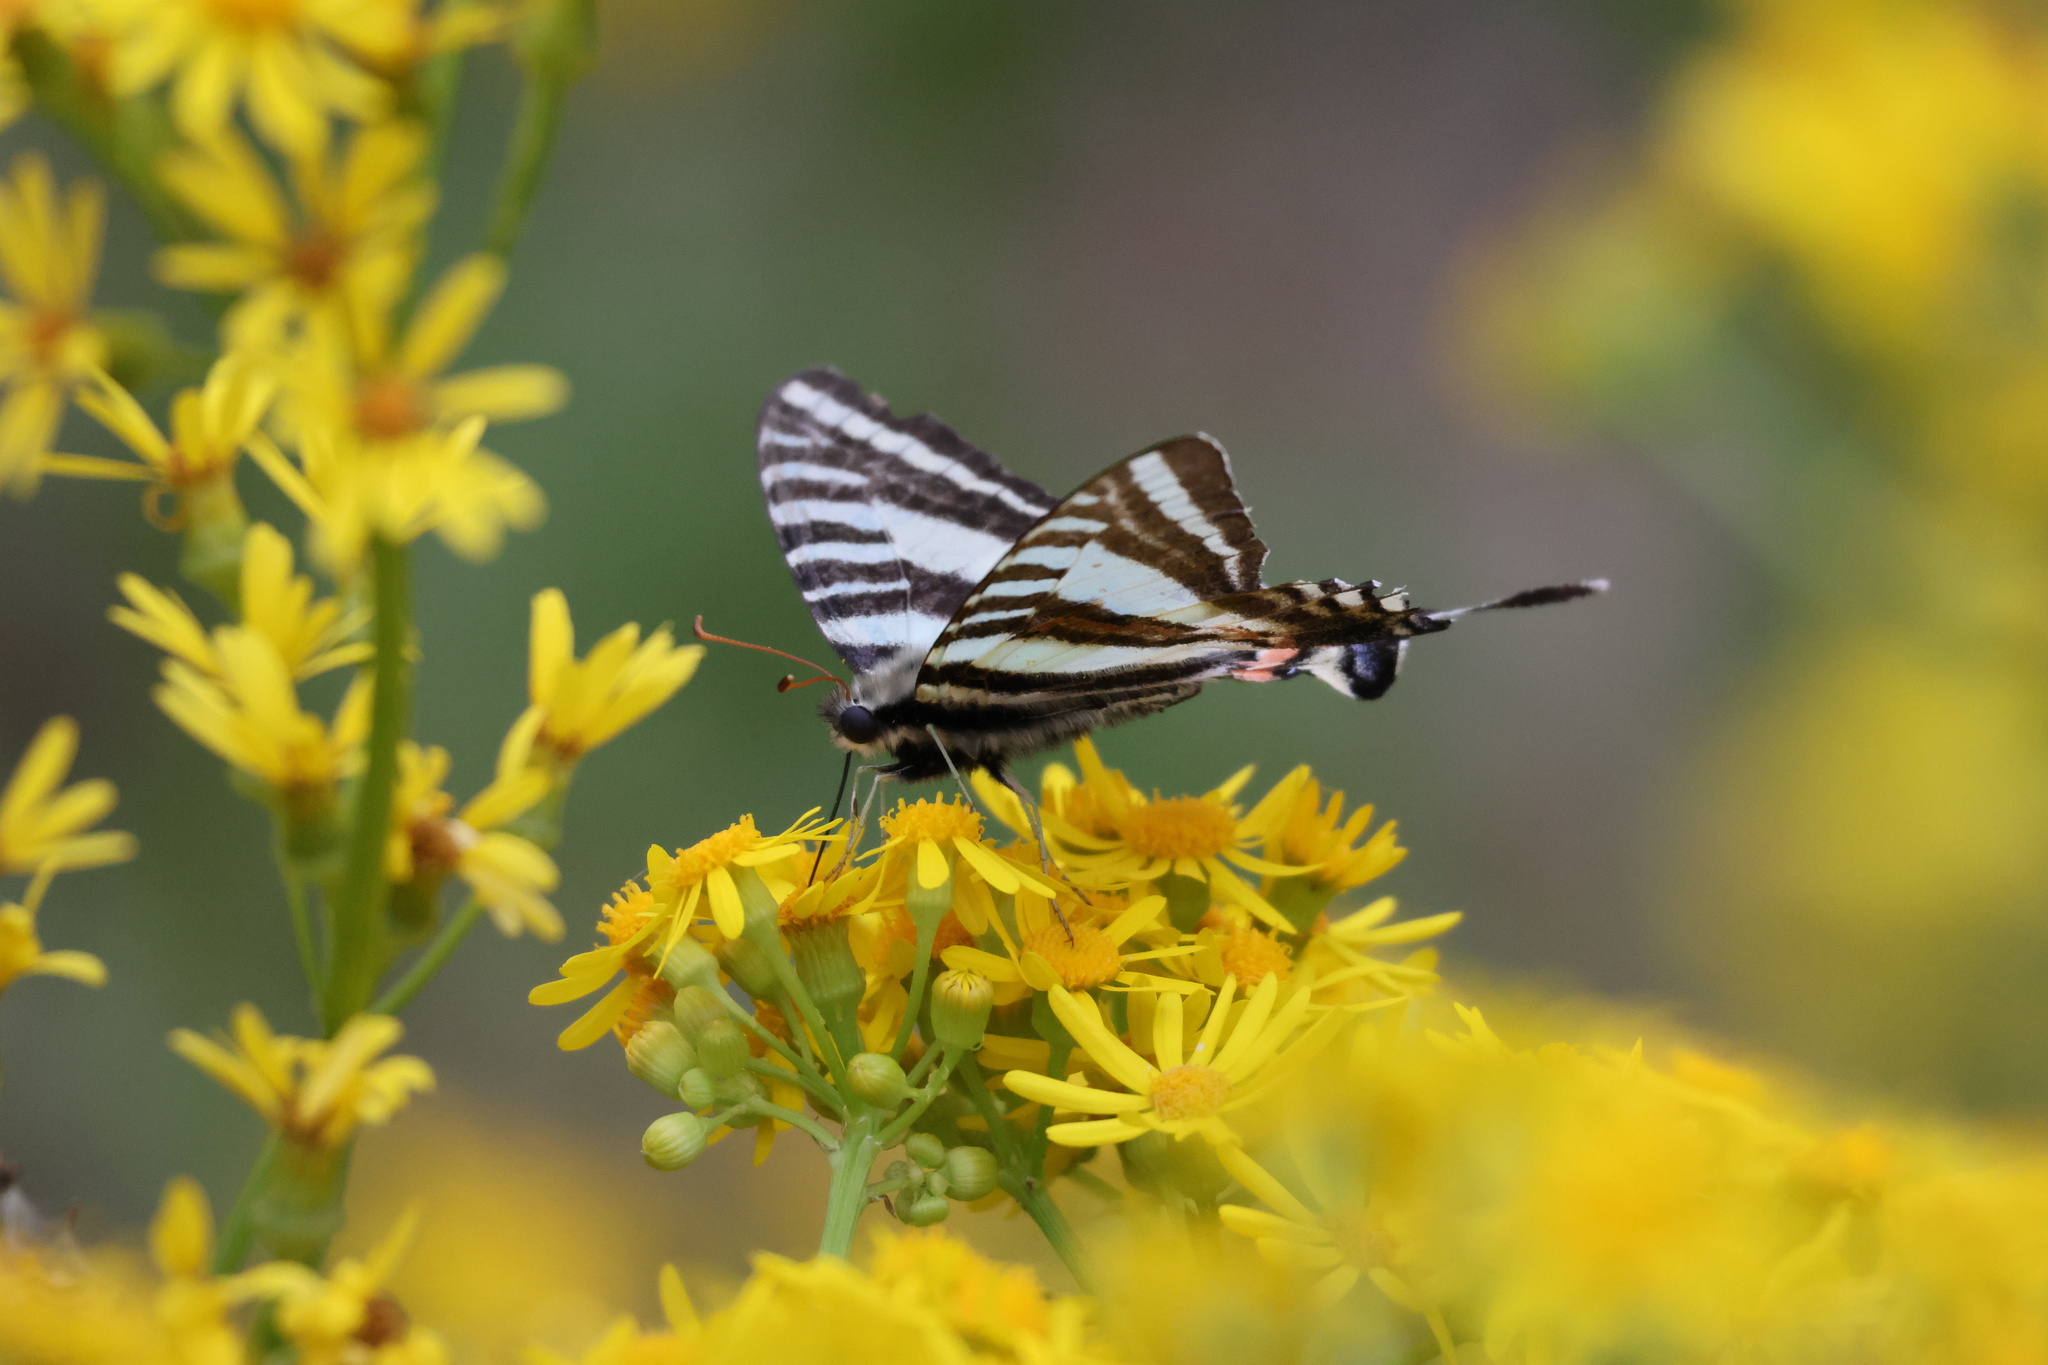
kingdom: Animalia
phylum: Arthropoda
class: Insecta
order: Lepidoptera
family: Papilionidae
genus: Protographium
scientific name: Protographium marcellus
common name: Zebra swallowtail
